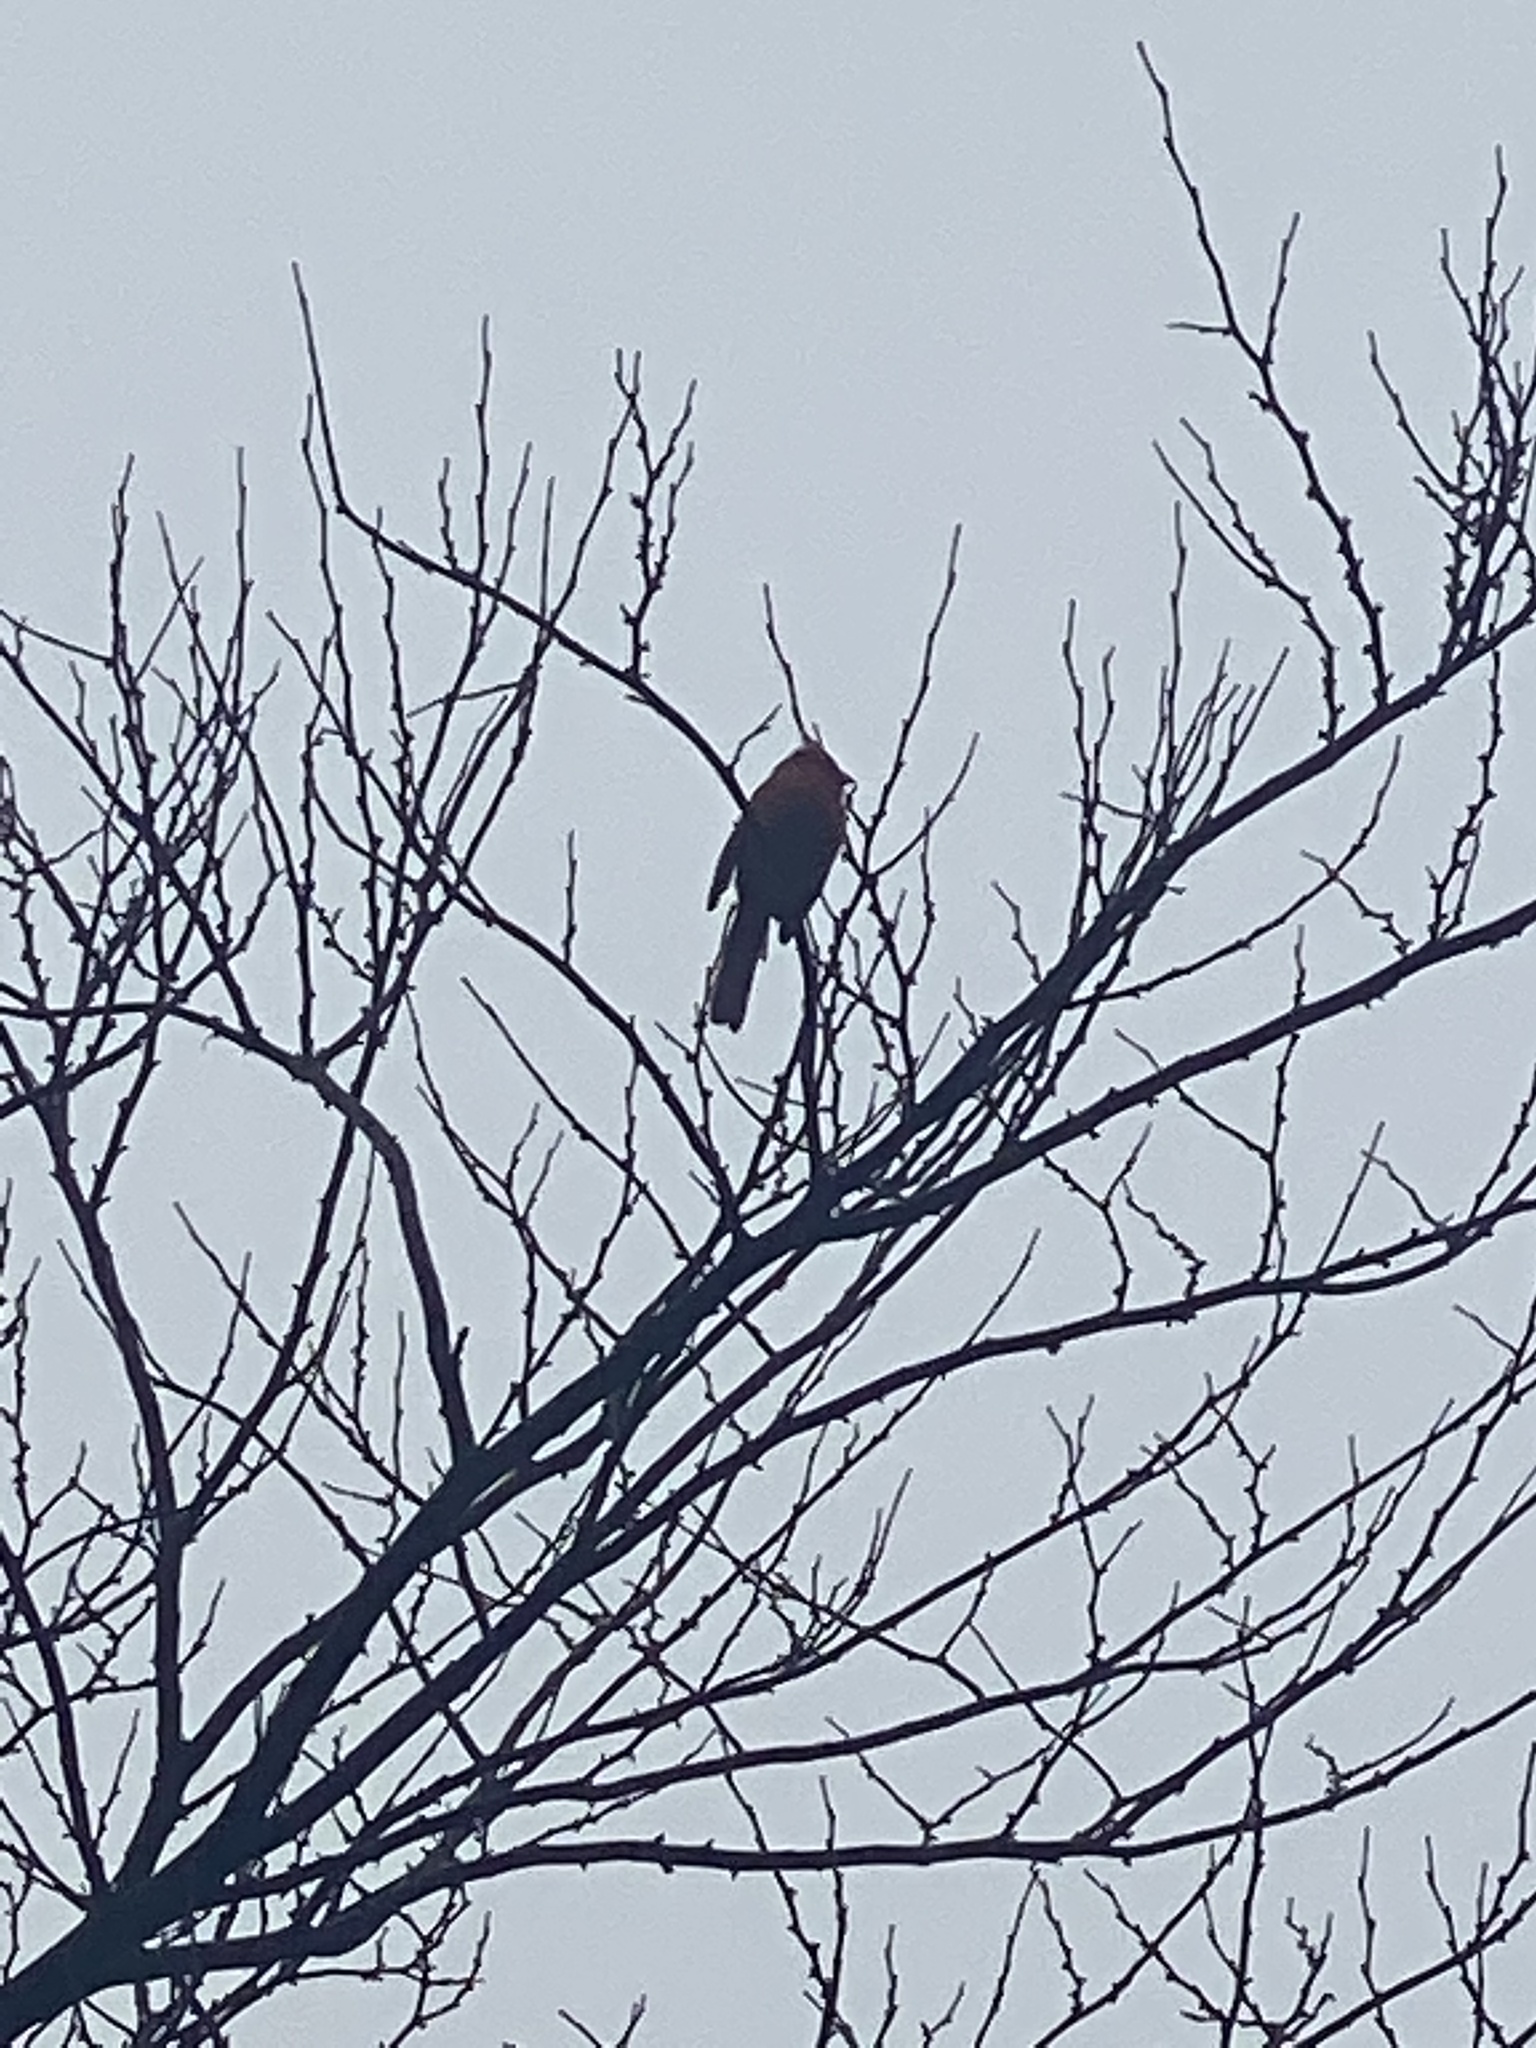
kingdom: Animalia
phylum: Chordata
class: Aves
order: Passeriformes
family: Cardinalidae
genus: Cardinalis
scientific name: Cardinalis cardinalis
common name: Northern cardinal
